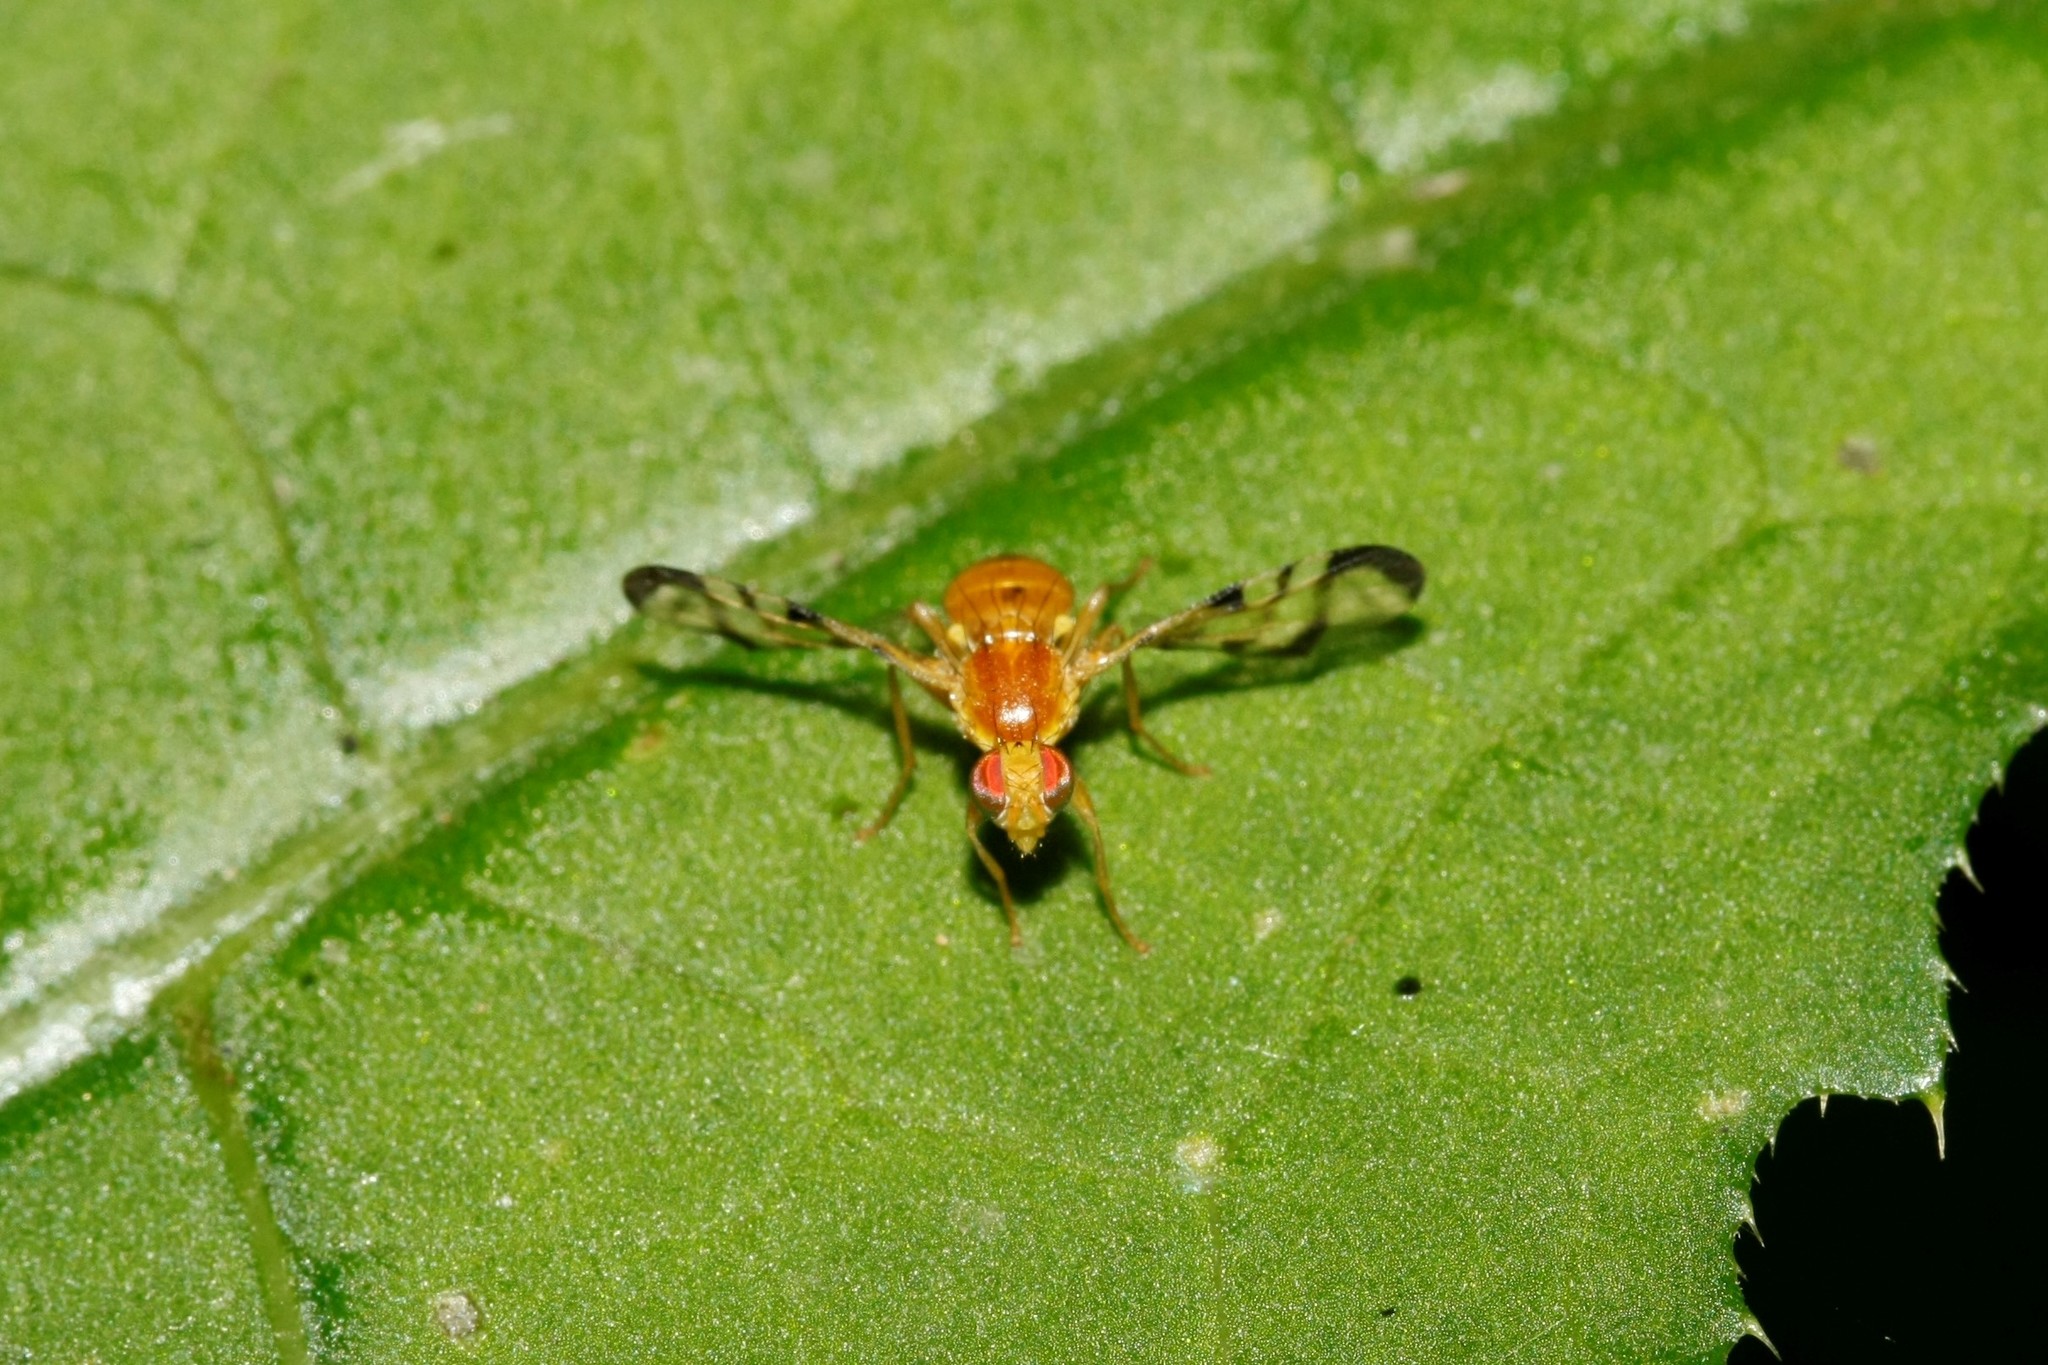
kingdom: Animalia
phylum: Arthropoda
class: Insecta
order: Diptera
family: Tephritidae
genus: Acidia
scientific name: Acidia cognata
